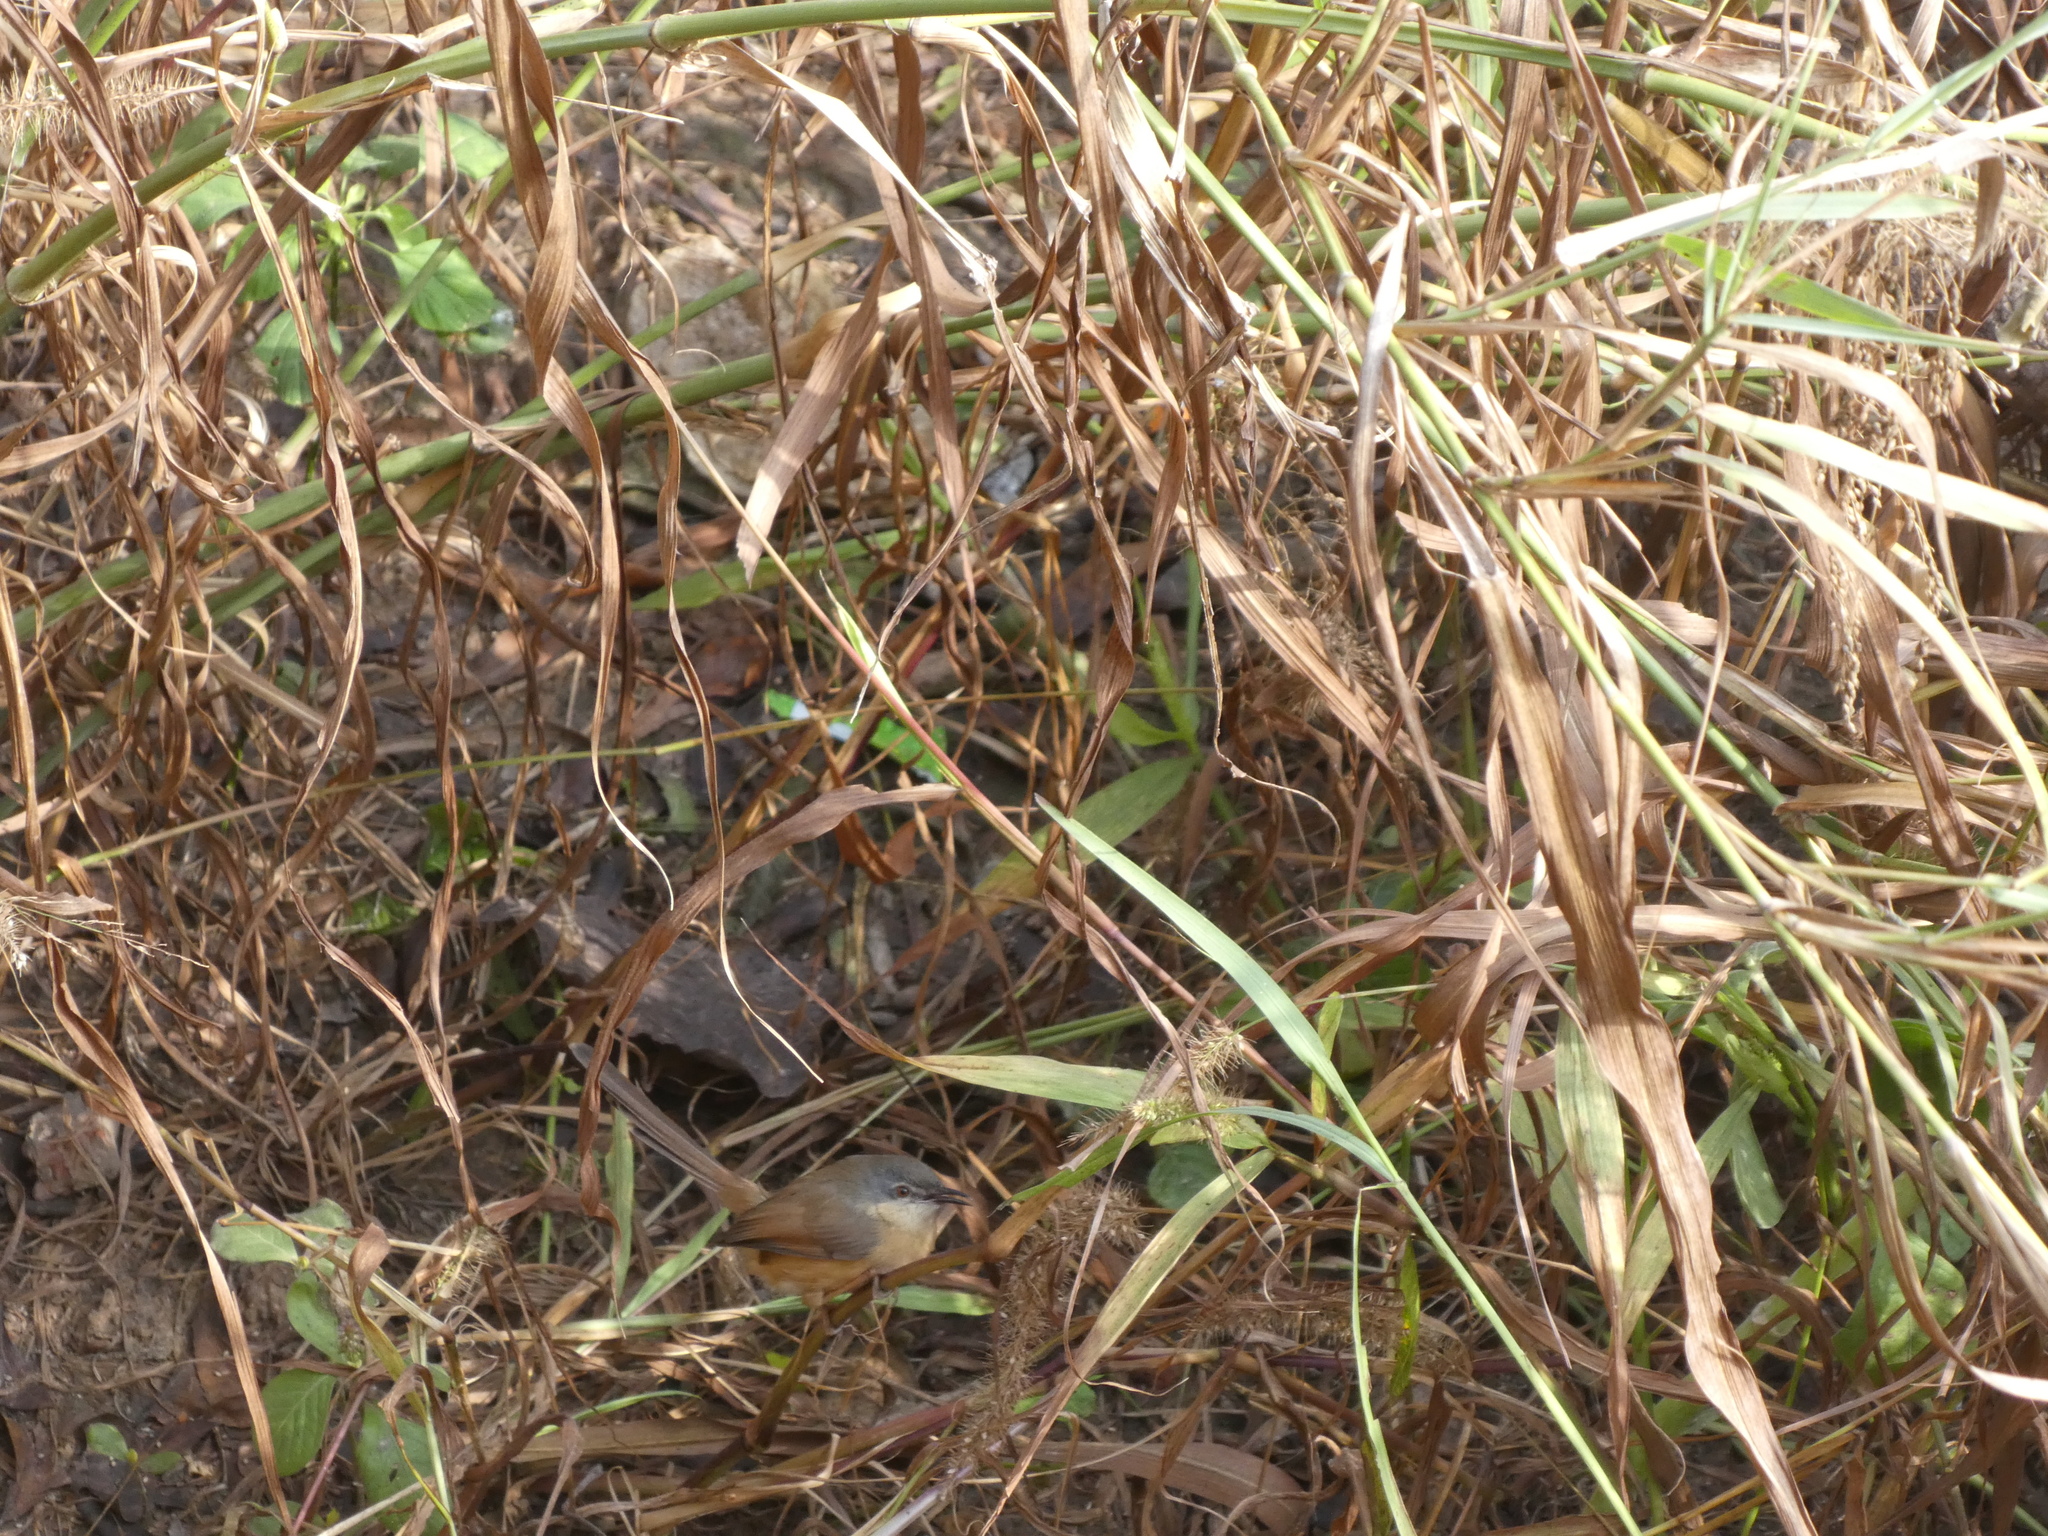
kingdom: Animalia
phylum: Chordata
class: Aves
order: Passeriformes
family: Cisticolidae
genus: Prinia
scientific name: Prinia socialis
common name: Ashy prinia
